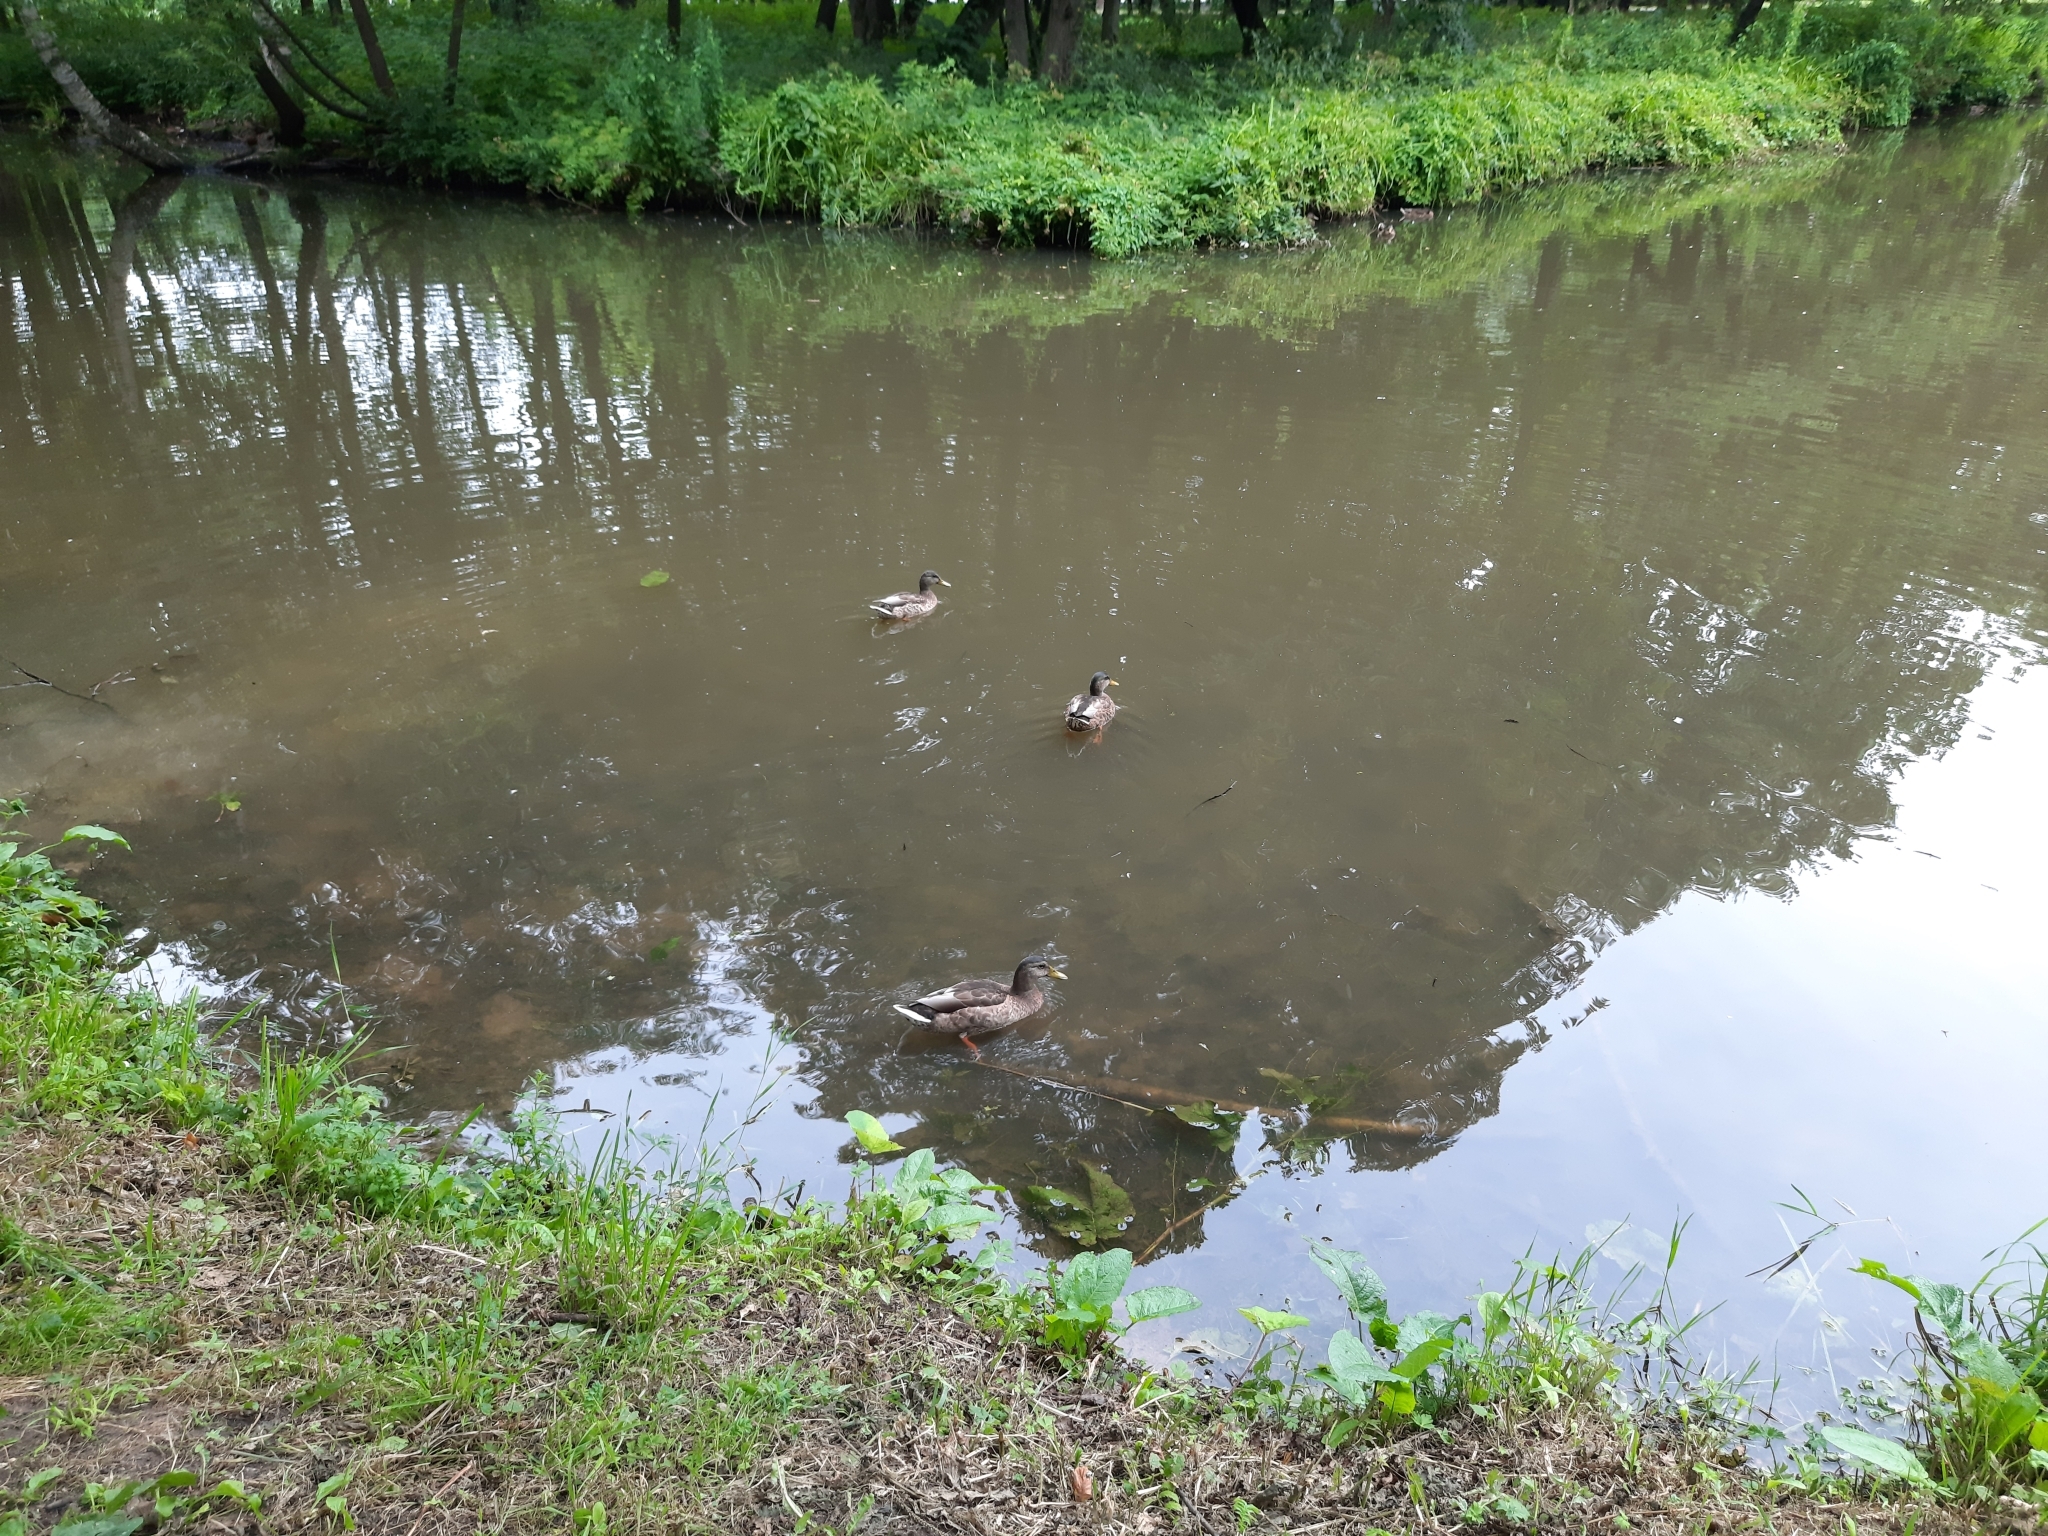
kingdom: Animalia
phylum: Chordata
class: Aves
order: Anseriformes
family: Anatidae
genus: Anas
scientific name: Anas platyrhynchos
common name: Mallard
